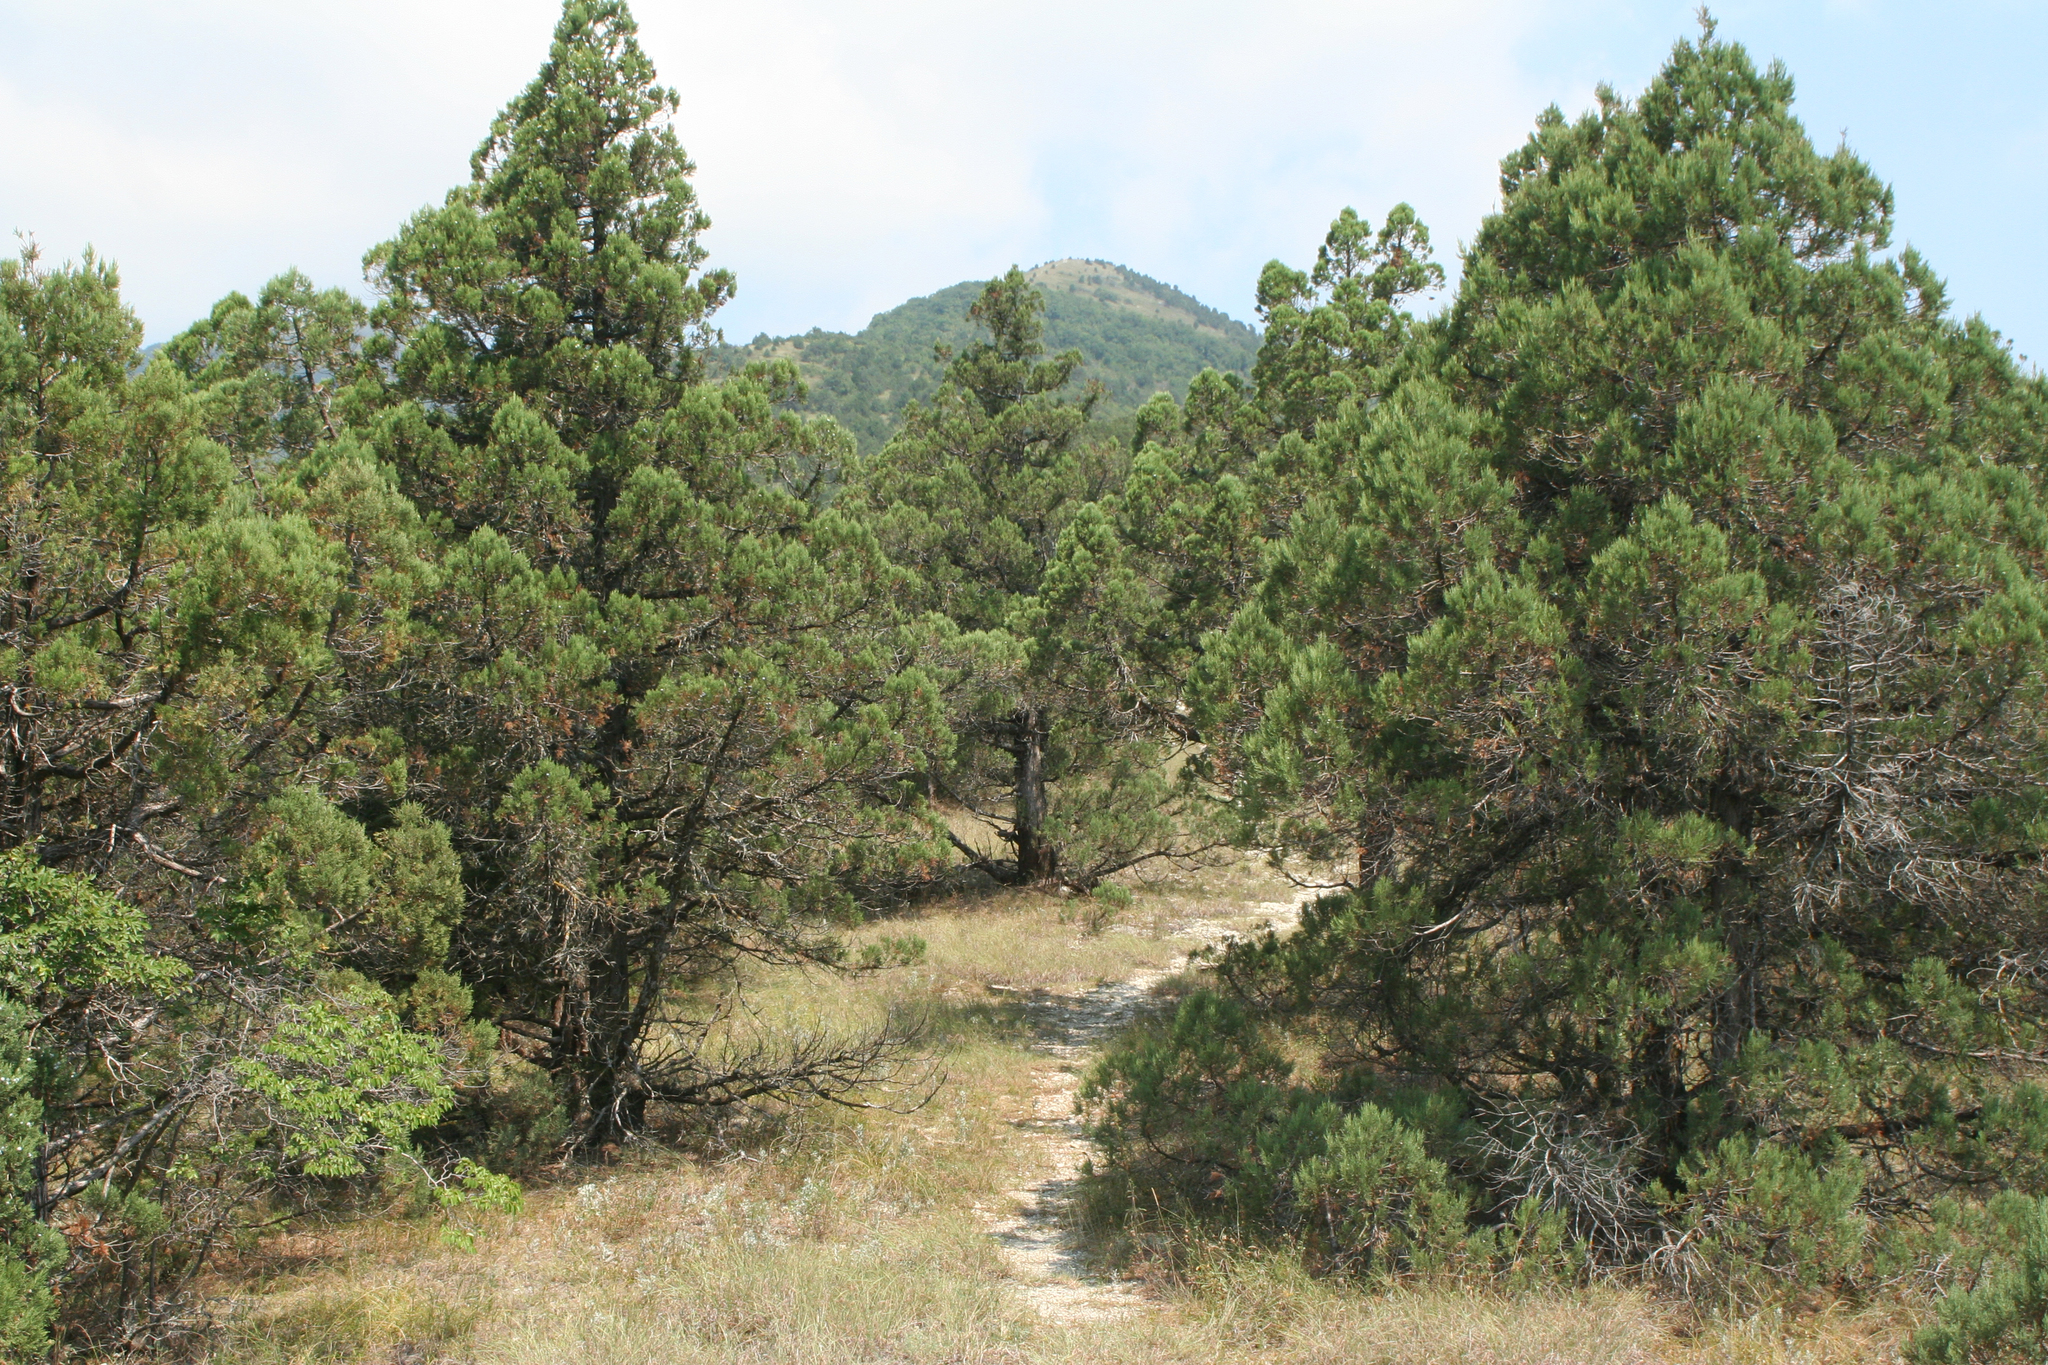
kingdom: Plantae
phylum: Tracheophyta
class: Pinopsida
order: Pinales
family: Cupressaceae
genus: Juniperus
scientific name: Juniperus excelsa
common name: Crimean juniper
